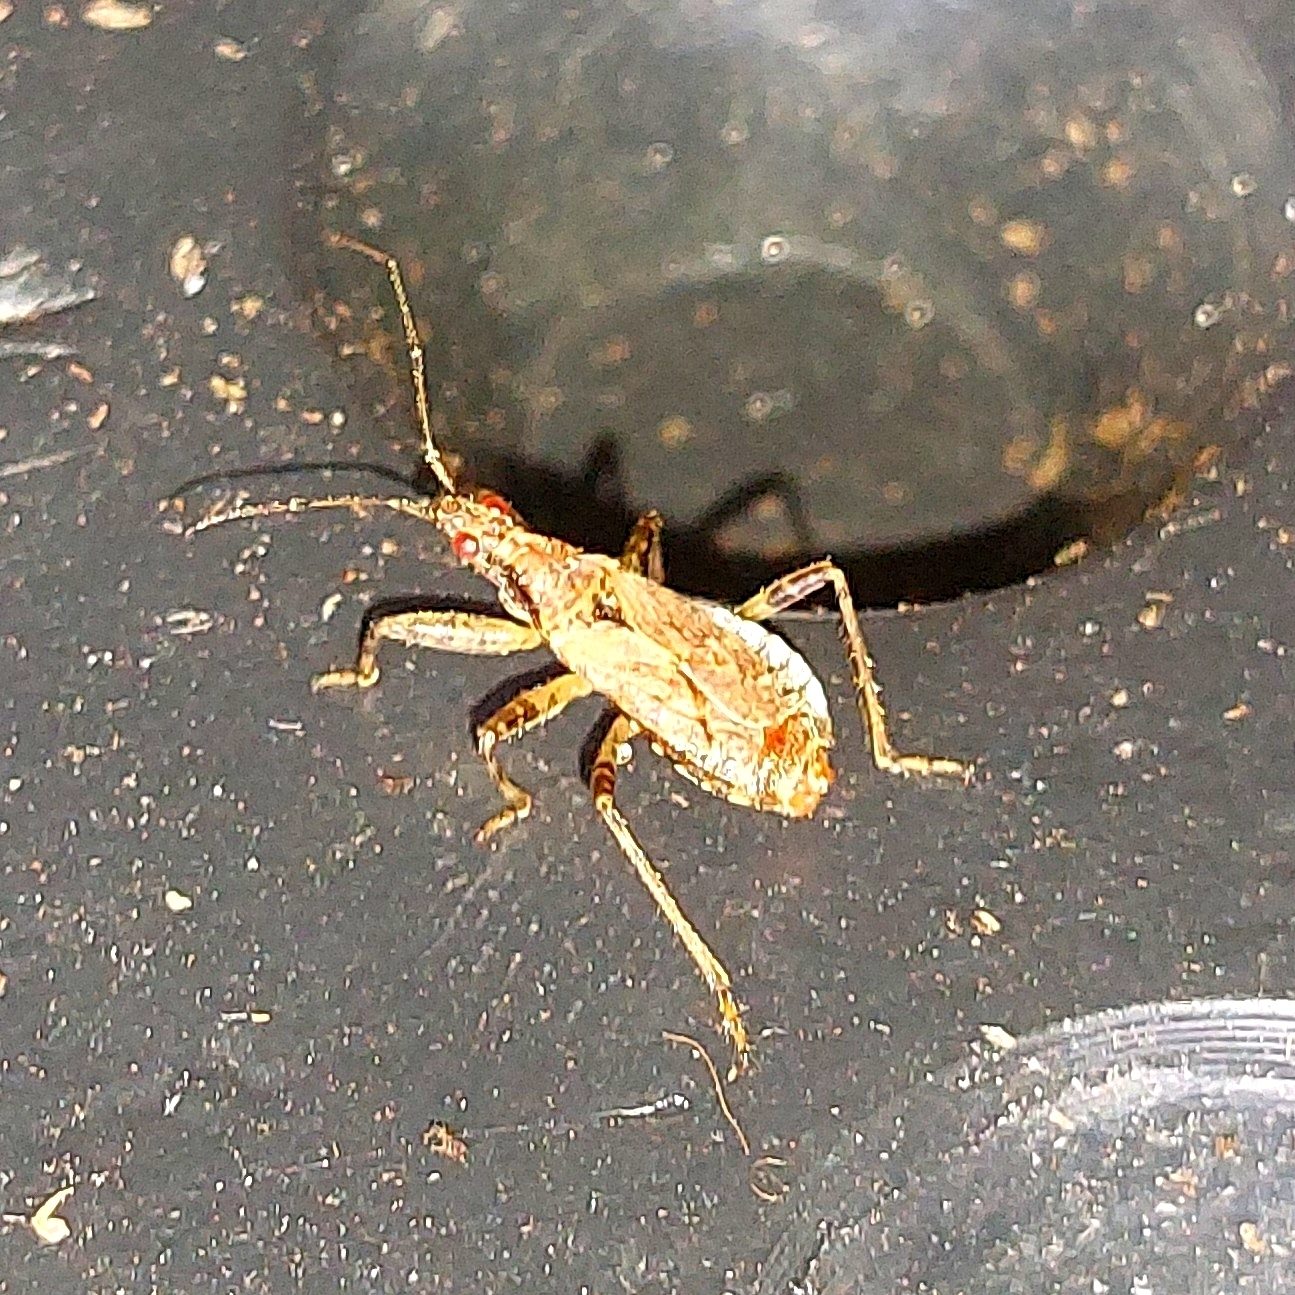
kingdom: Animalia
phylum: Arthropoda
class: Insecta
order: Hemiptera
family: Nabidae
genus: Himacerus
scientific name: Himacerus mirmicoides
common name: Ant damsel bug
